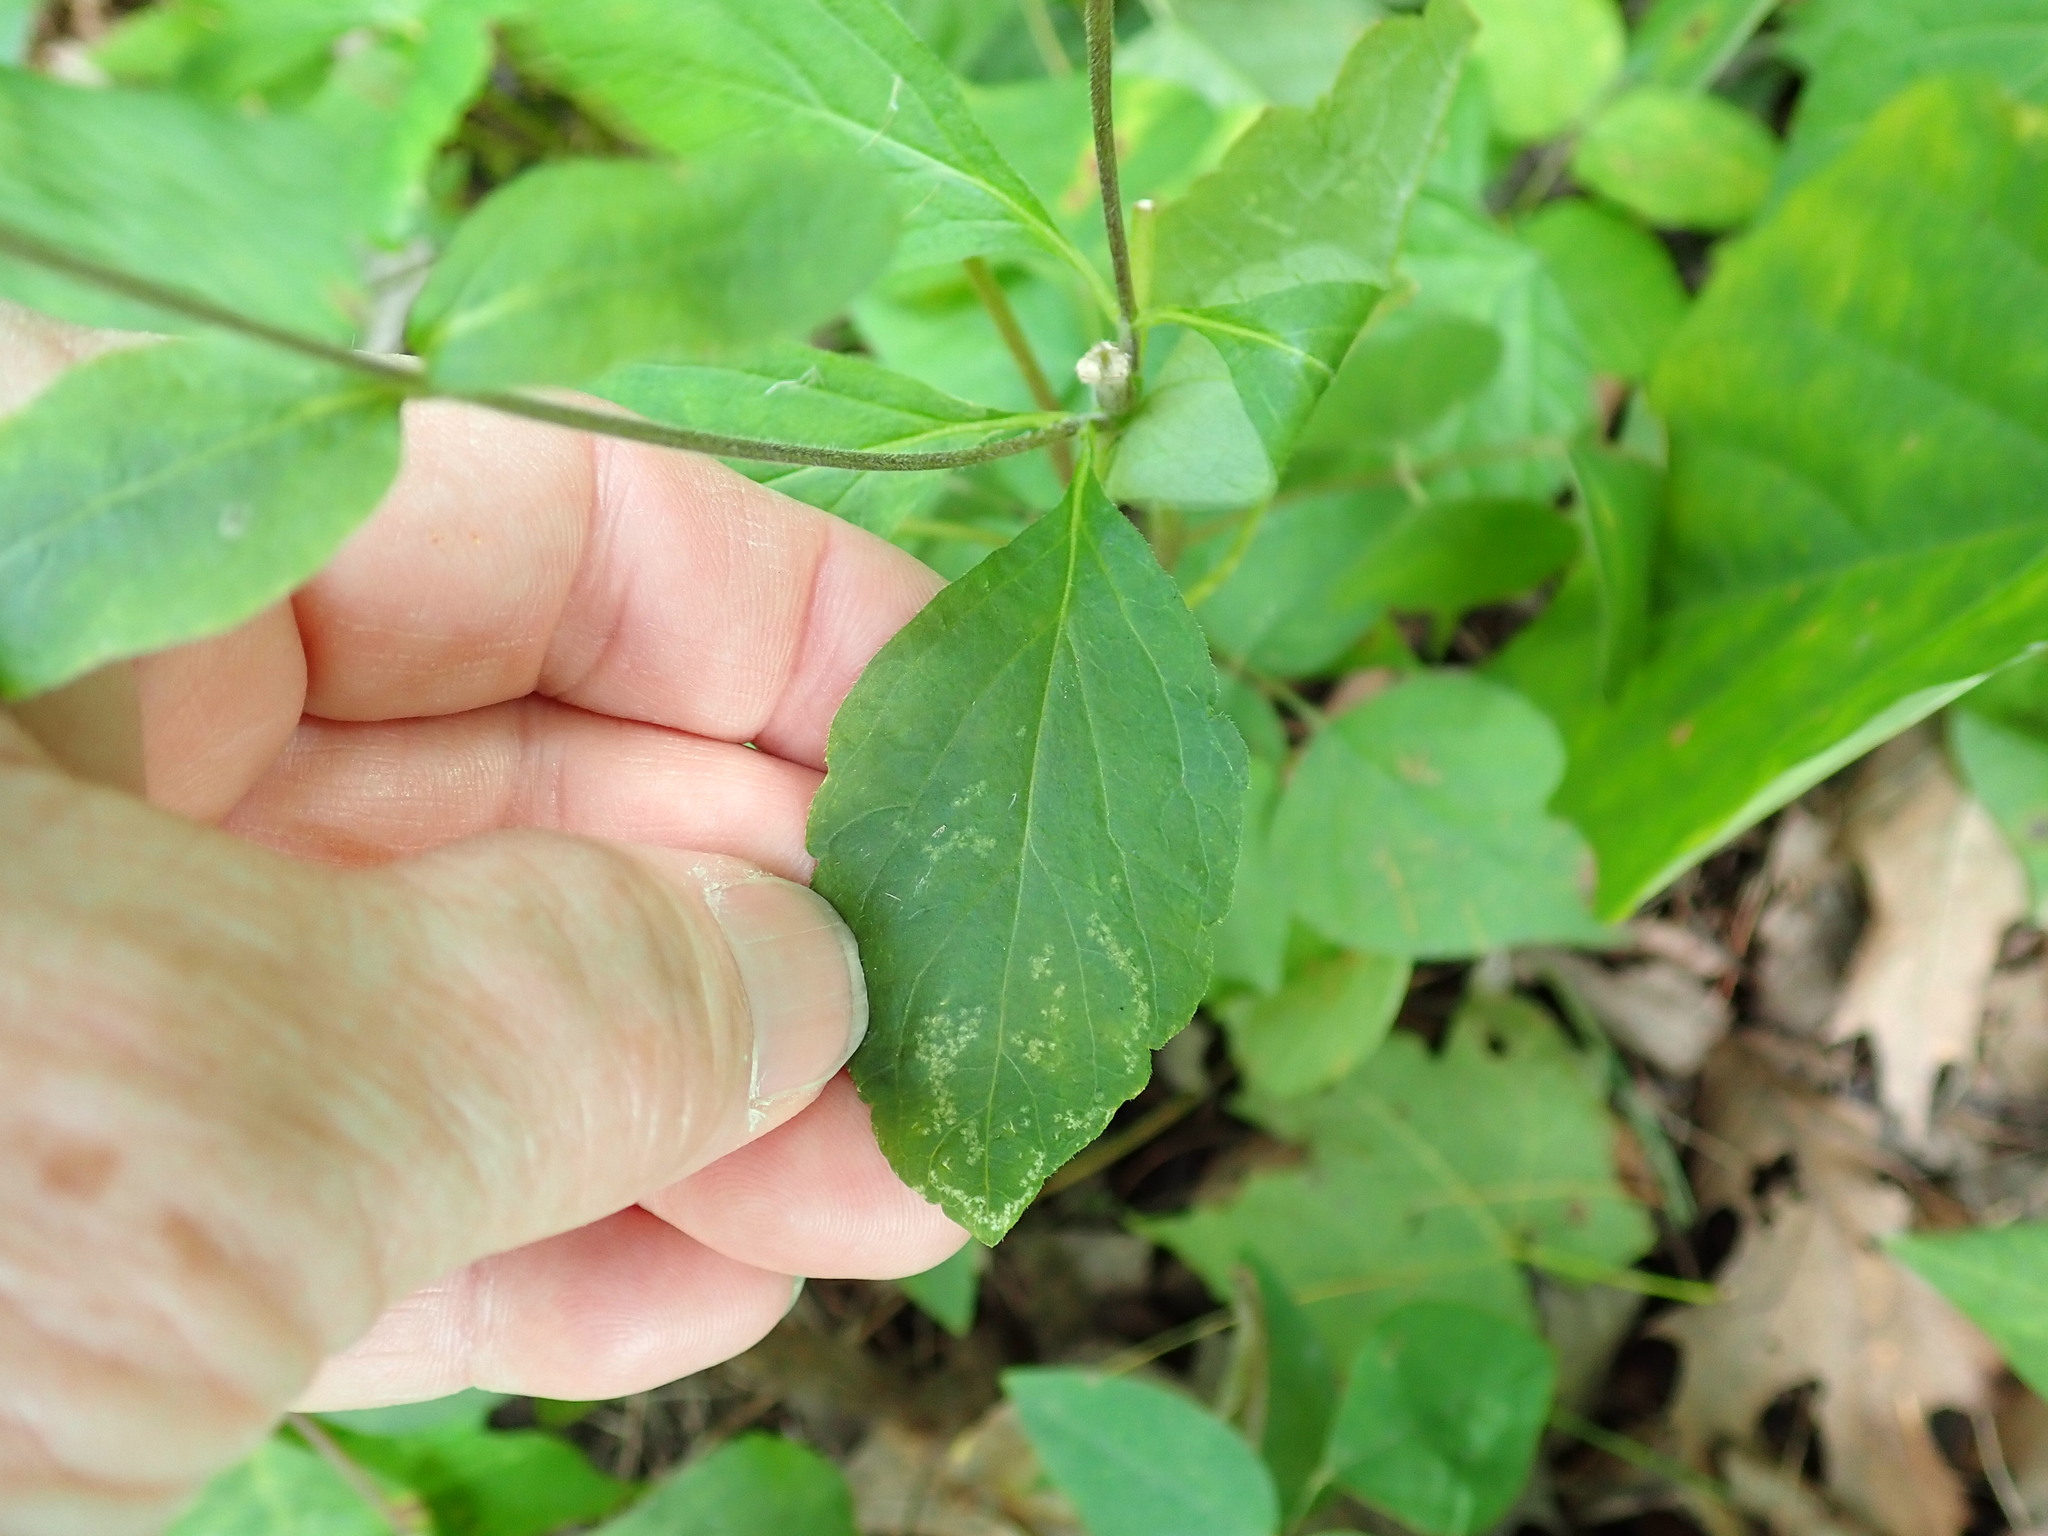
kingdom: Plantae
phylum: Tracheophyta
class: Magnoliopsida
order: Lamiales
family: Phrymaceae
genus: Phryma
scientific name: Phryma leptostachya
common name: American lopseed
